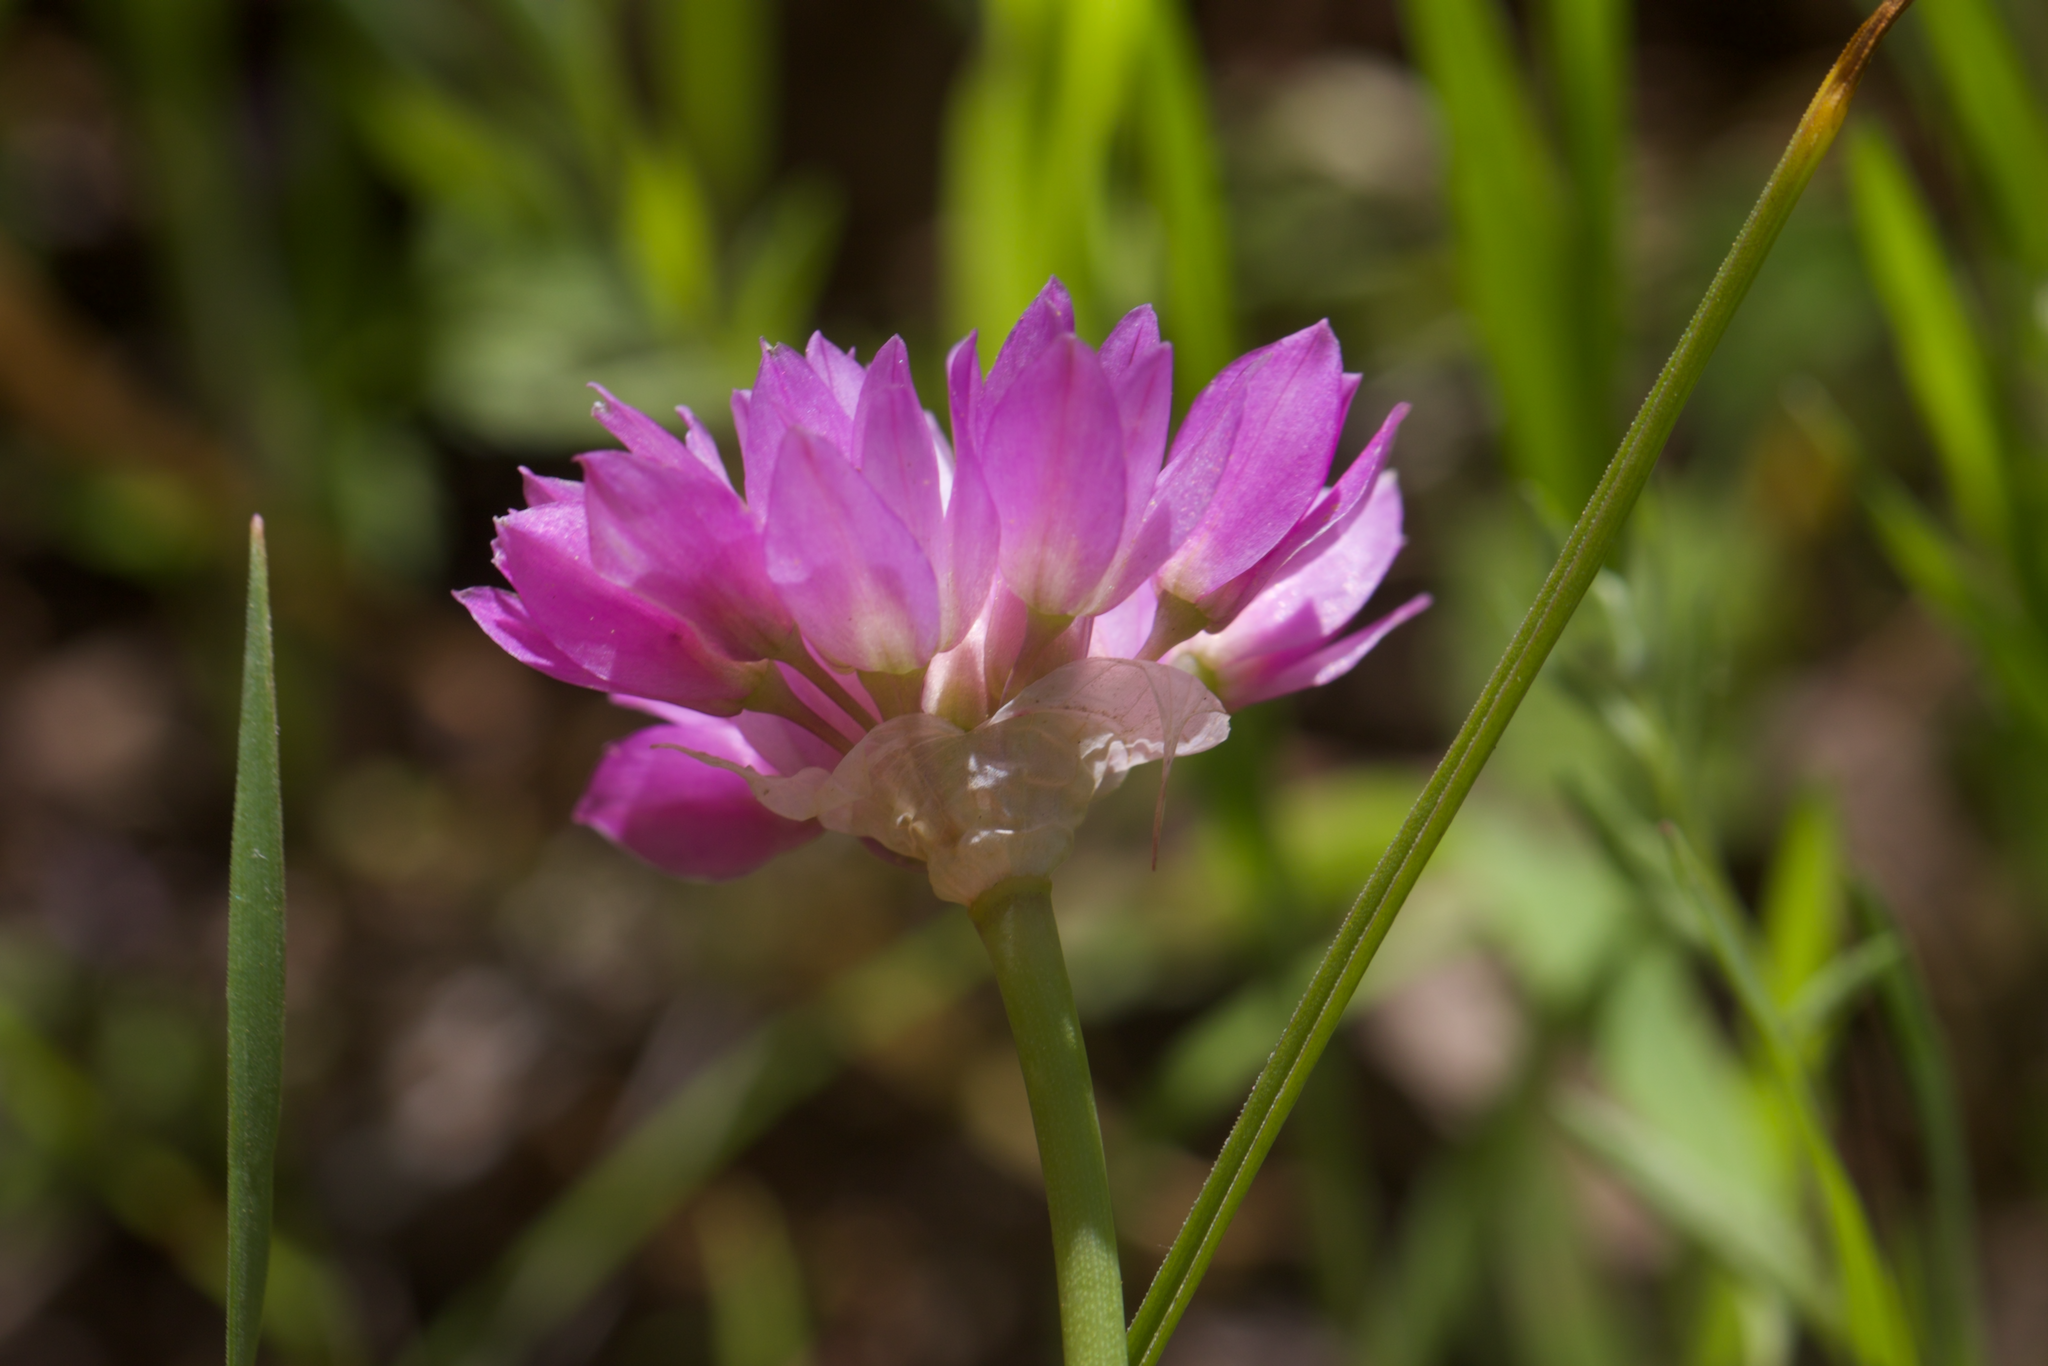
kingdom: Plantae
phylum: Tracheophyta
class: Liliopsida
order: Asparagales
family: Amaryllidaceae
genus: Allium
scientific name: Allium serra
